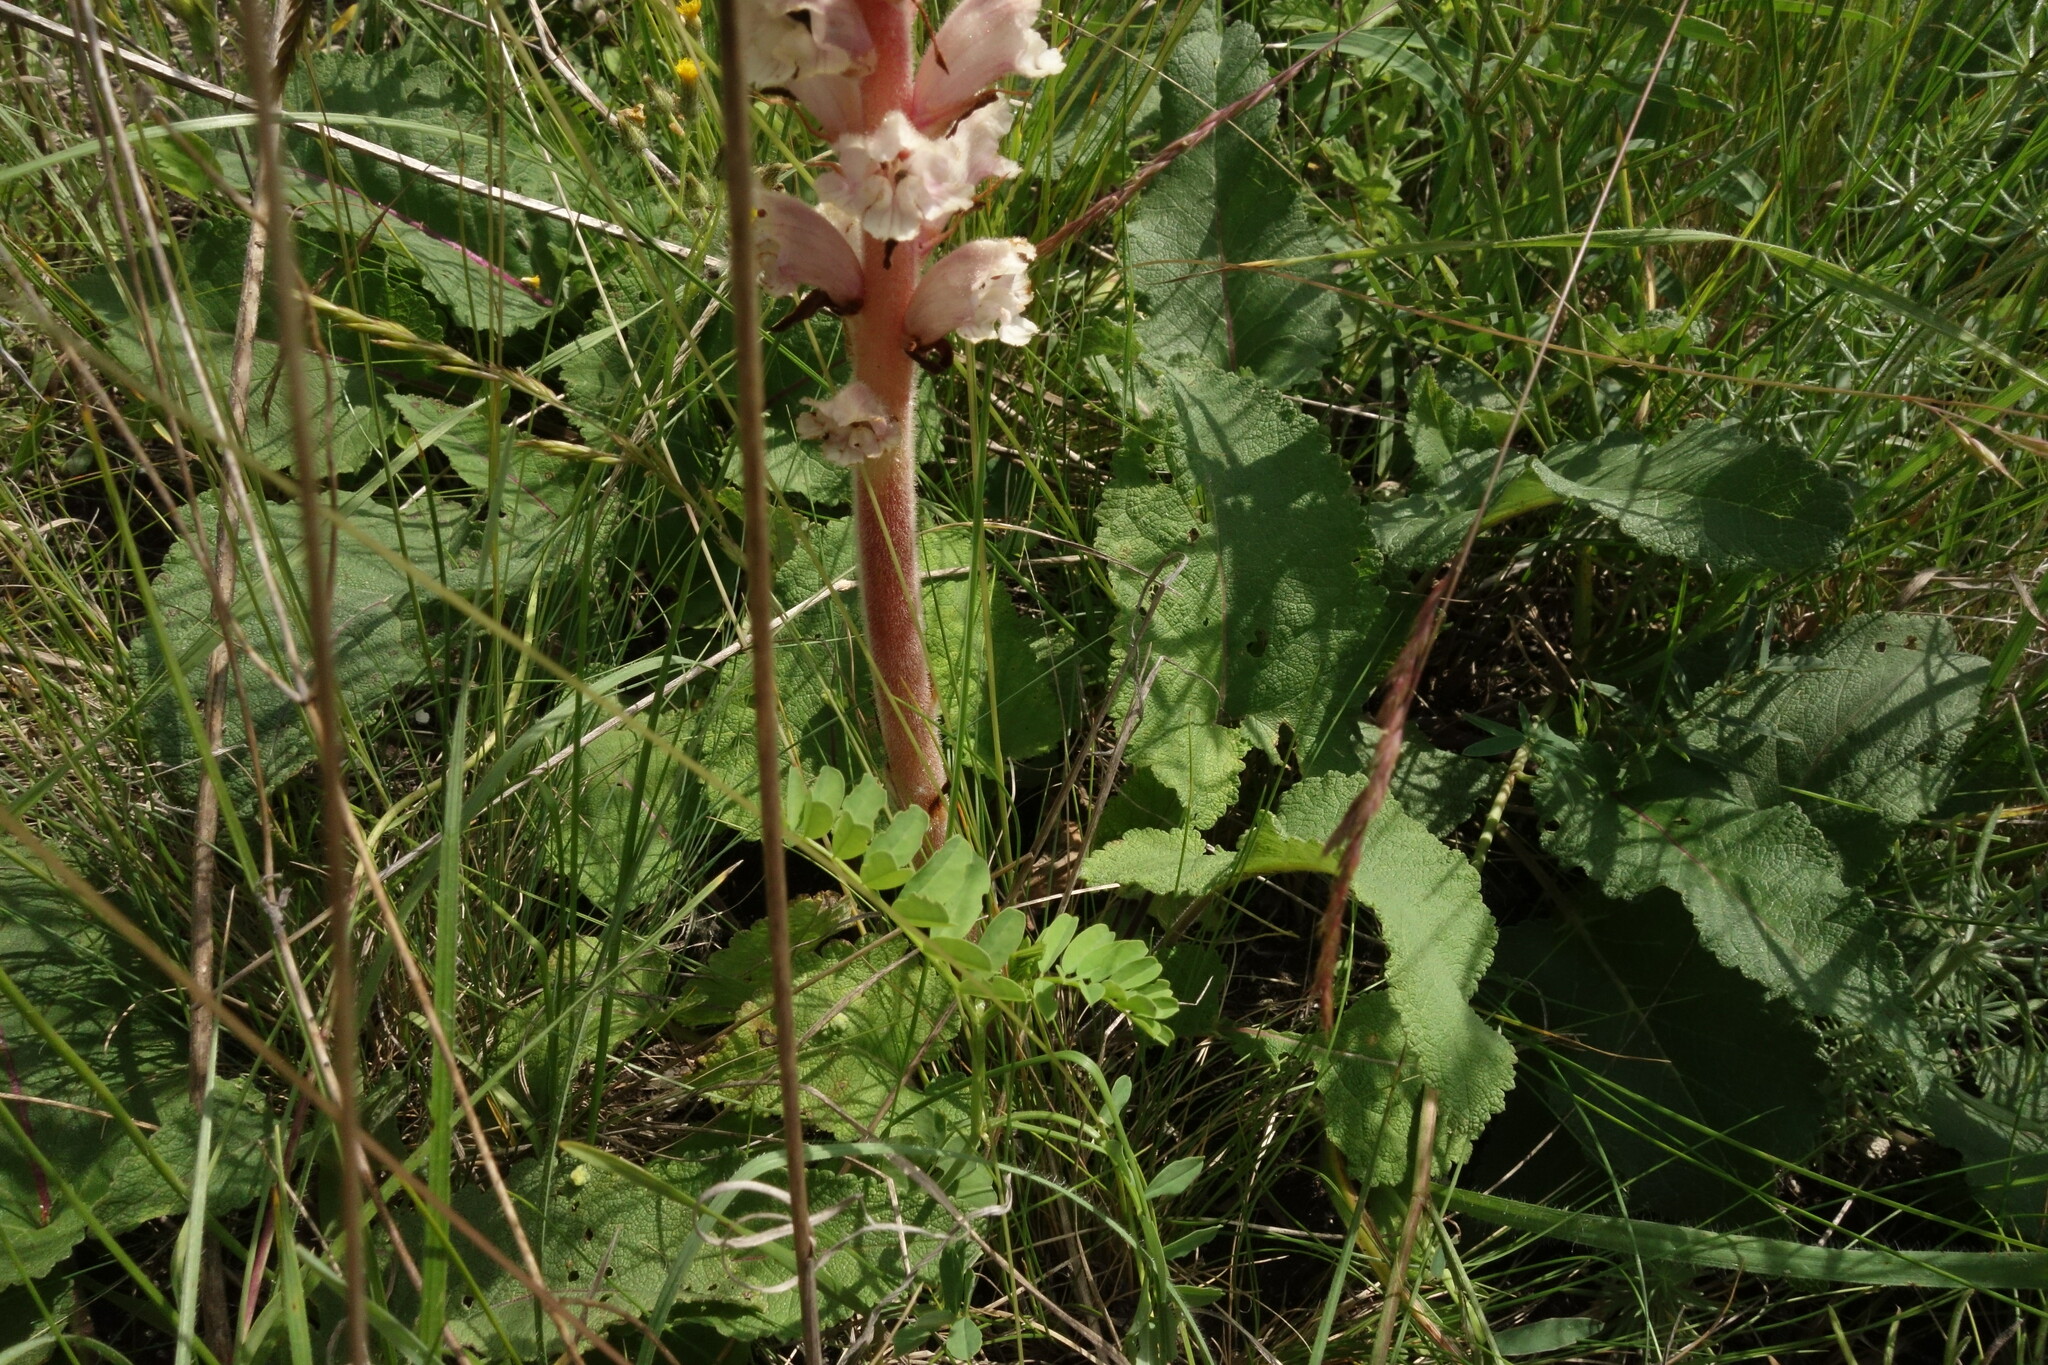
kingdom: Plantae
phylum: Tracheophyta
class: Magnoliopsida
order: Lamiales
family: Orobanchaceae
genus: Orobanche
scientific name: Orobanche alba
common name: Thyme broomrape
